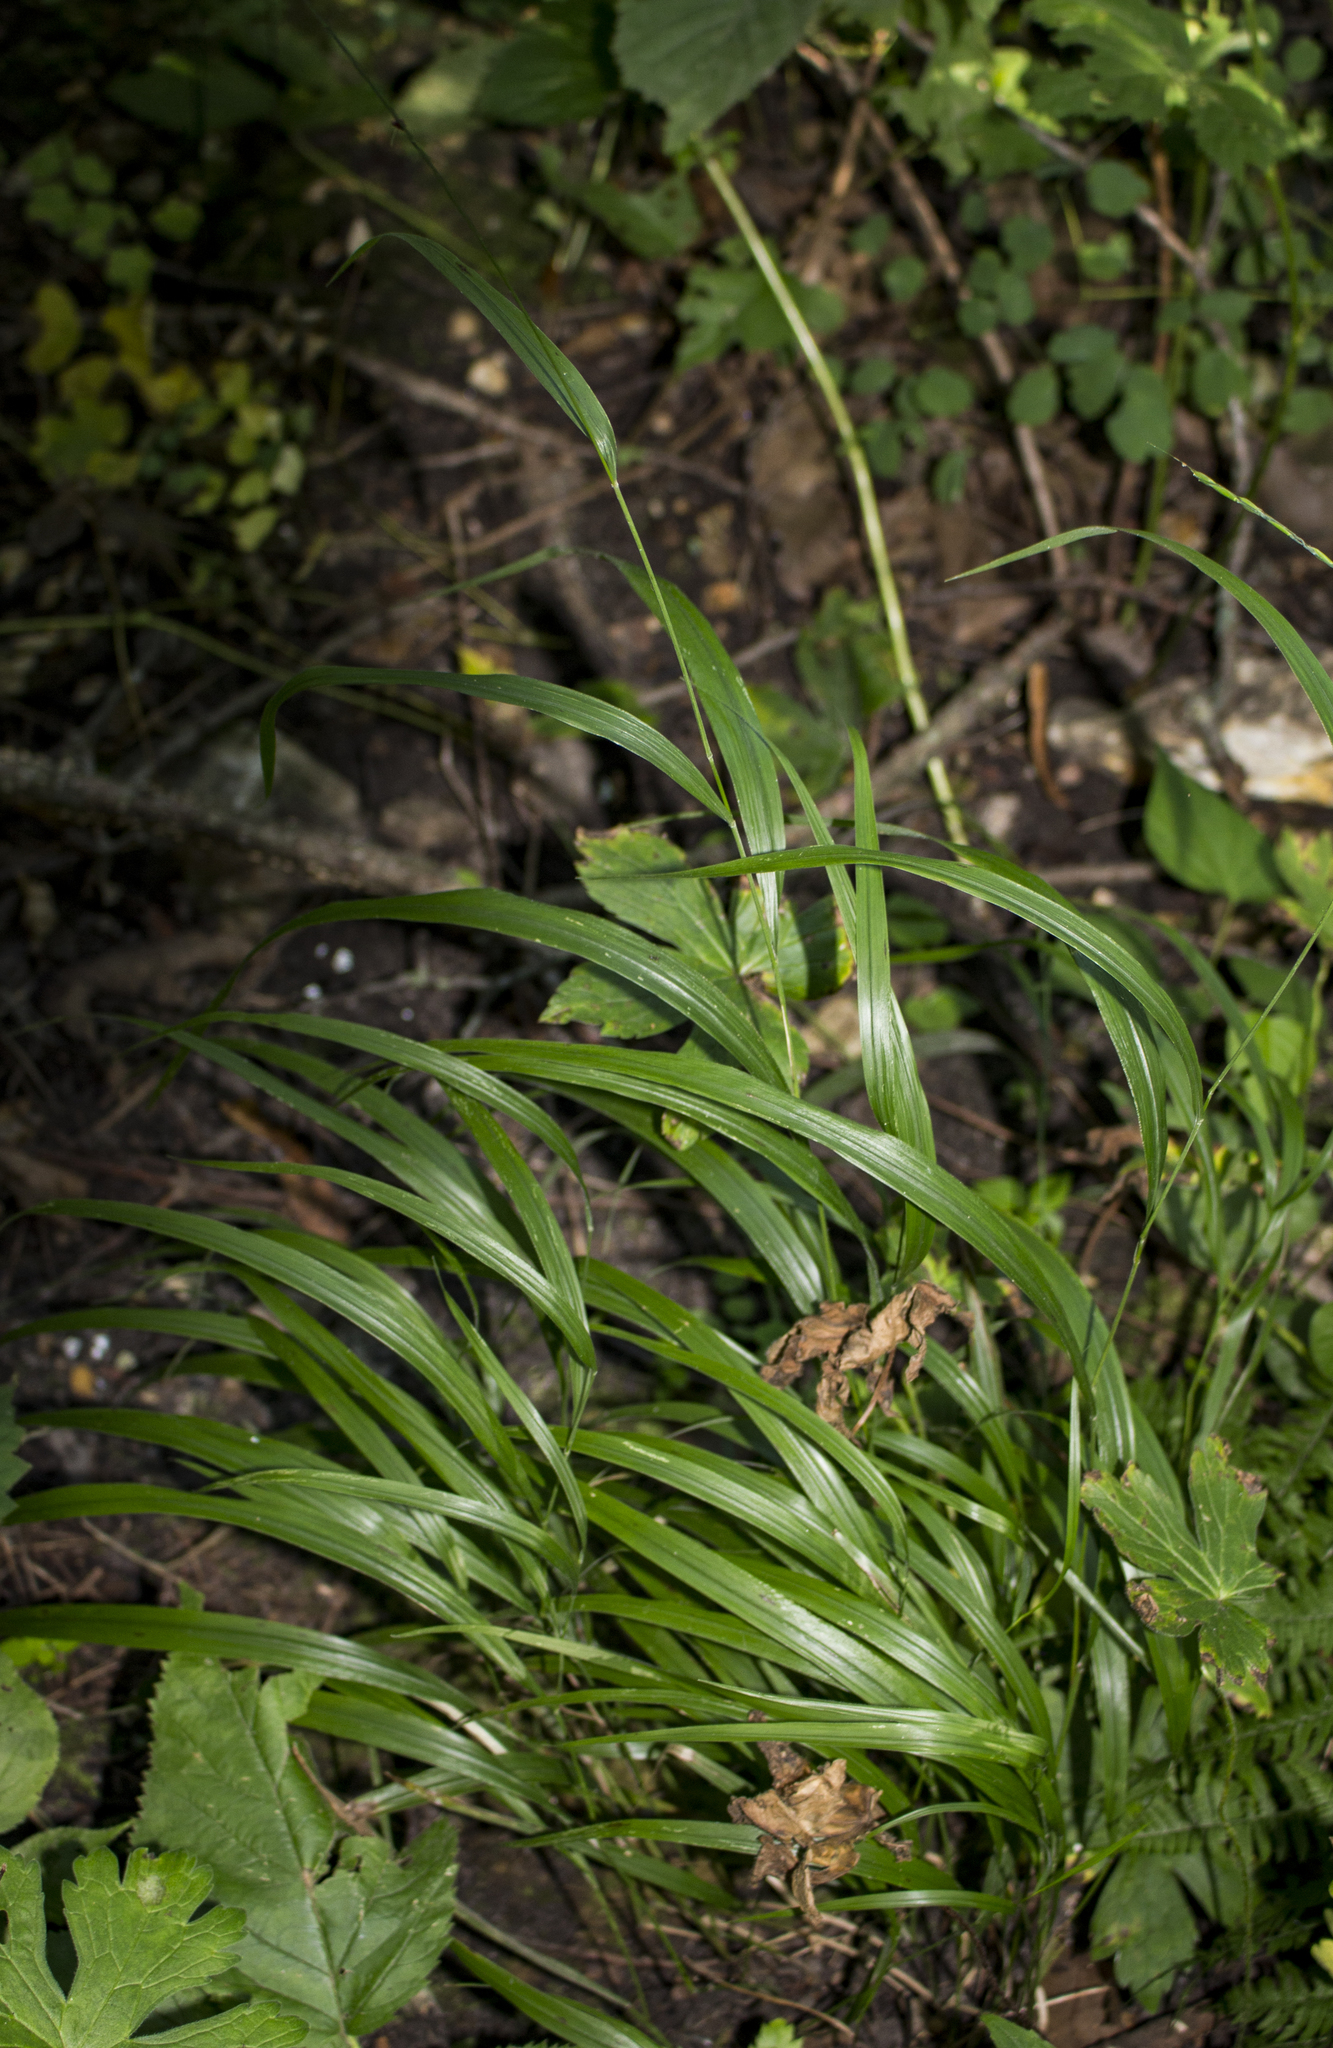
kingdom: Plantae
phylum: Tracheophyta
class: Liliopsida
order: Poales
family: Poaceae
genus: Patis
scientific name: Patis racemosa
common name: Black-fruited mountain rice
